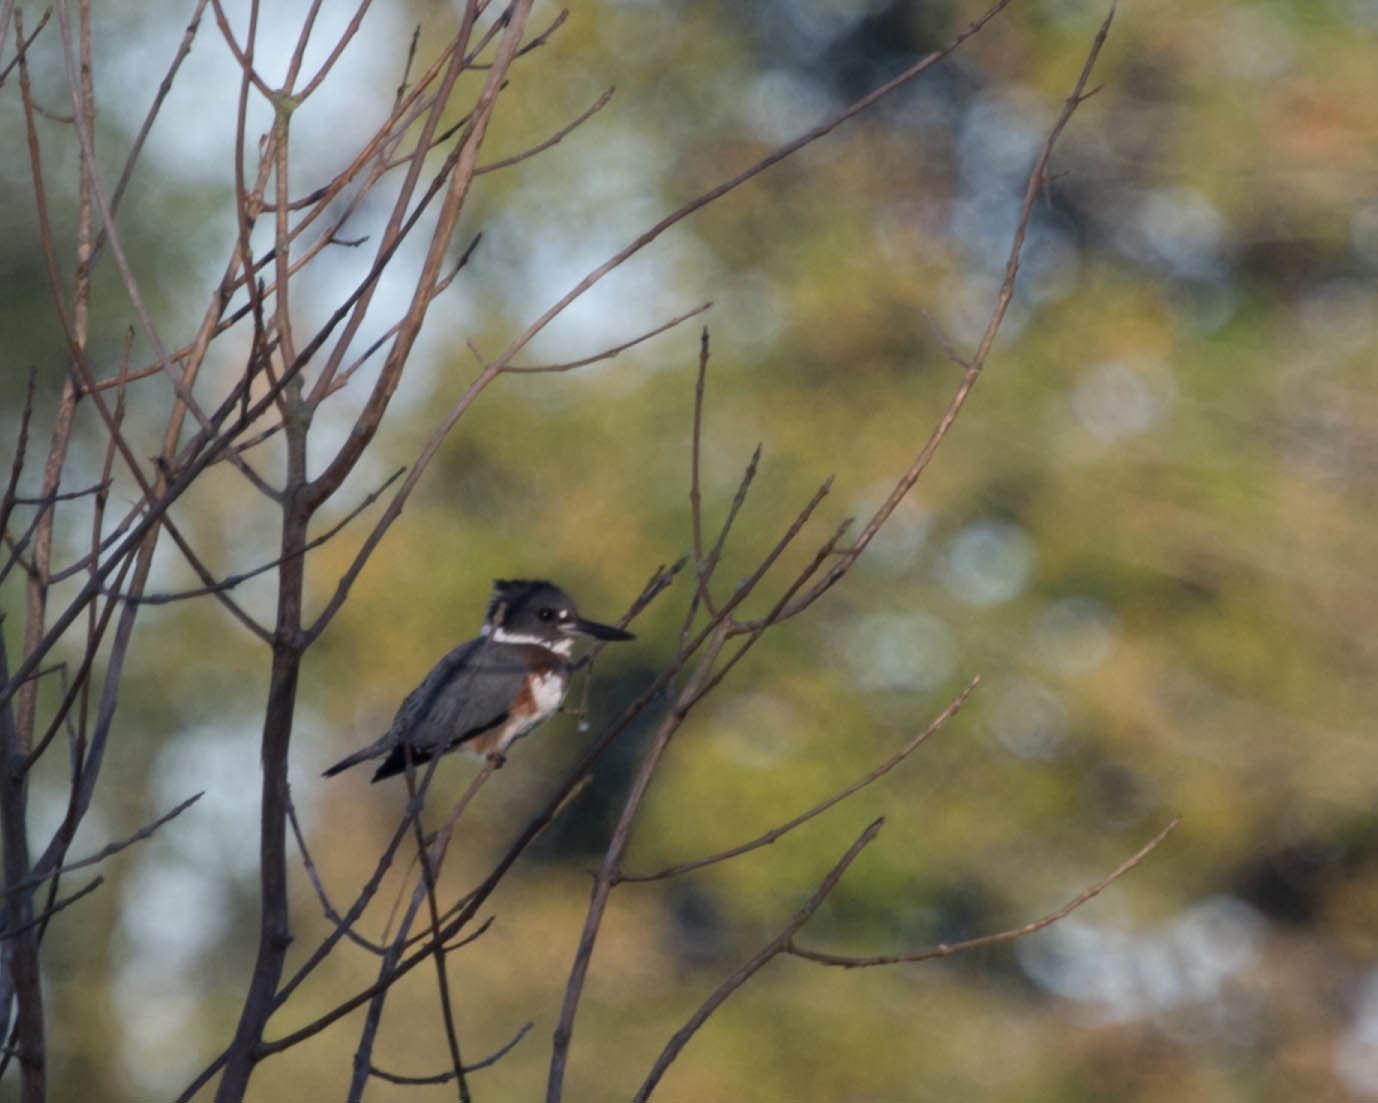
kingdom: Animalia
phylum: Chordata
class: Aves
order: Coraciiformes
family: Alcedinidae
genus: Megaceryle
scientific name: Megaceryle alcyon
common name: Belted kingfisher
